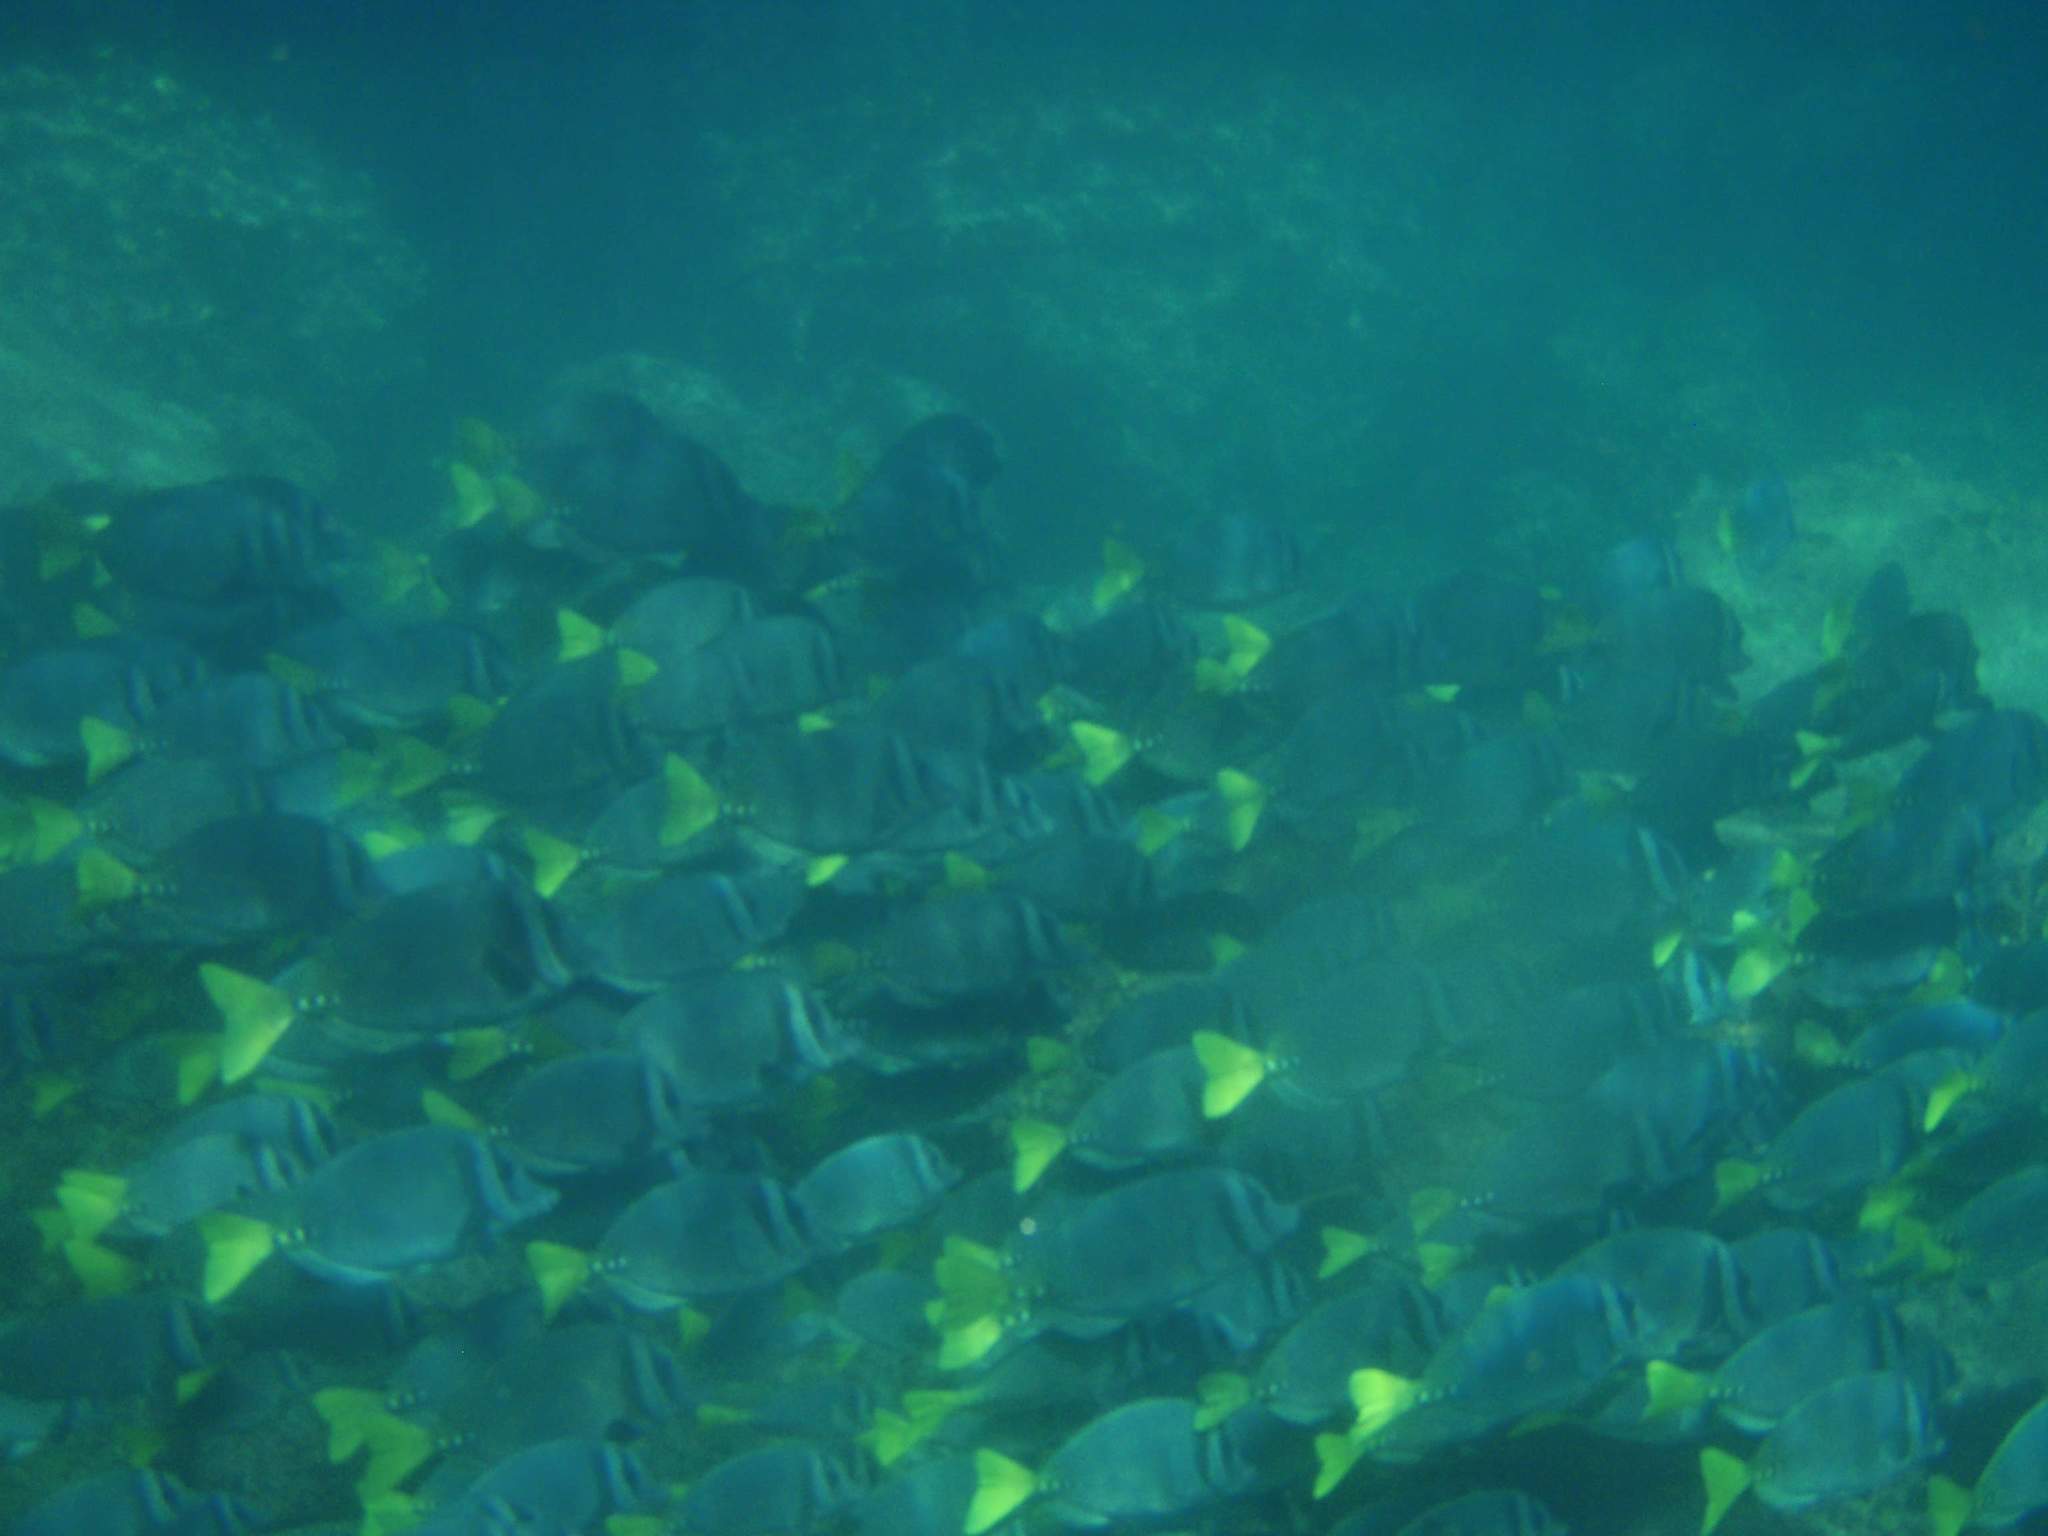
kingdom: Animalia
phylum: Chordata
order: Perciformes
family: Acanthuridae
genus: Prionurus
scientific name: Prionurus laticlavius
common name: Razor surgeonfish
